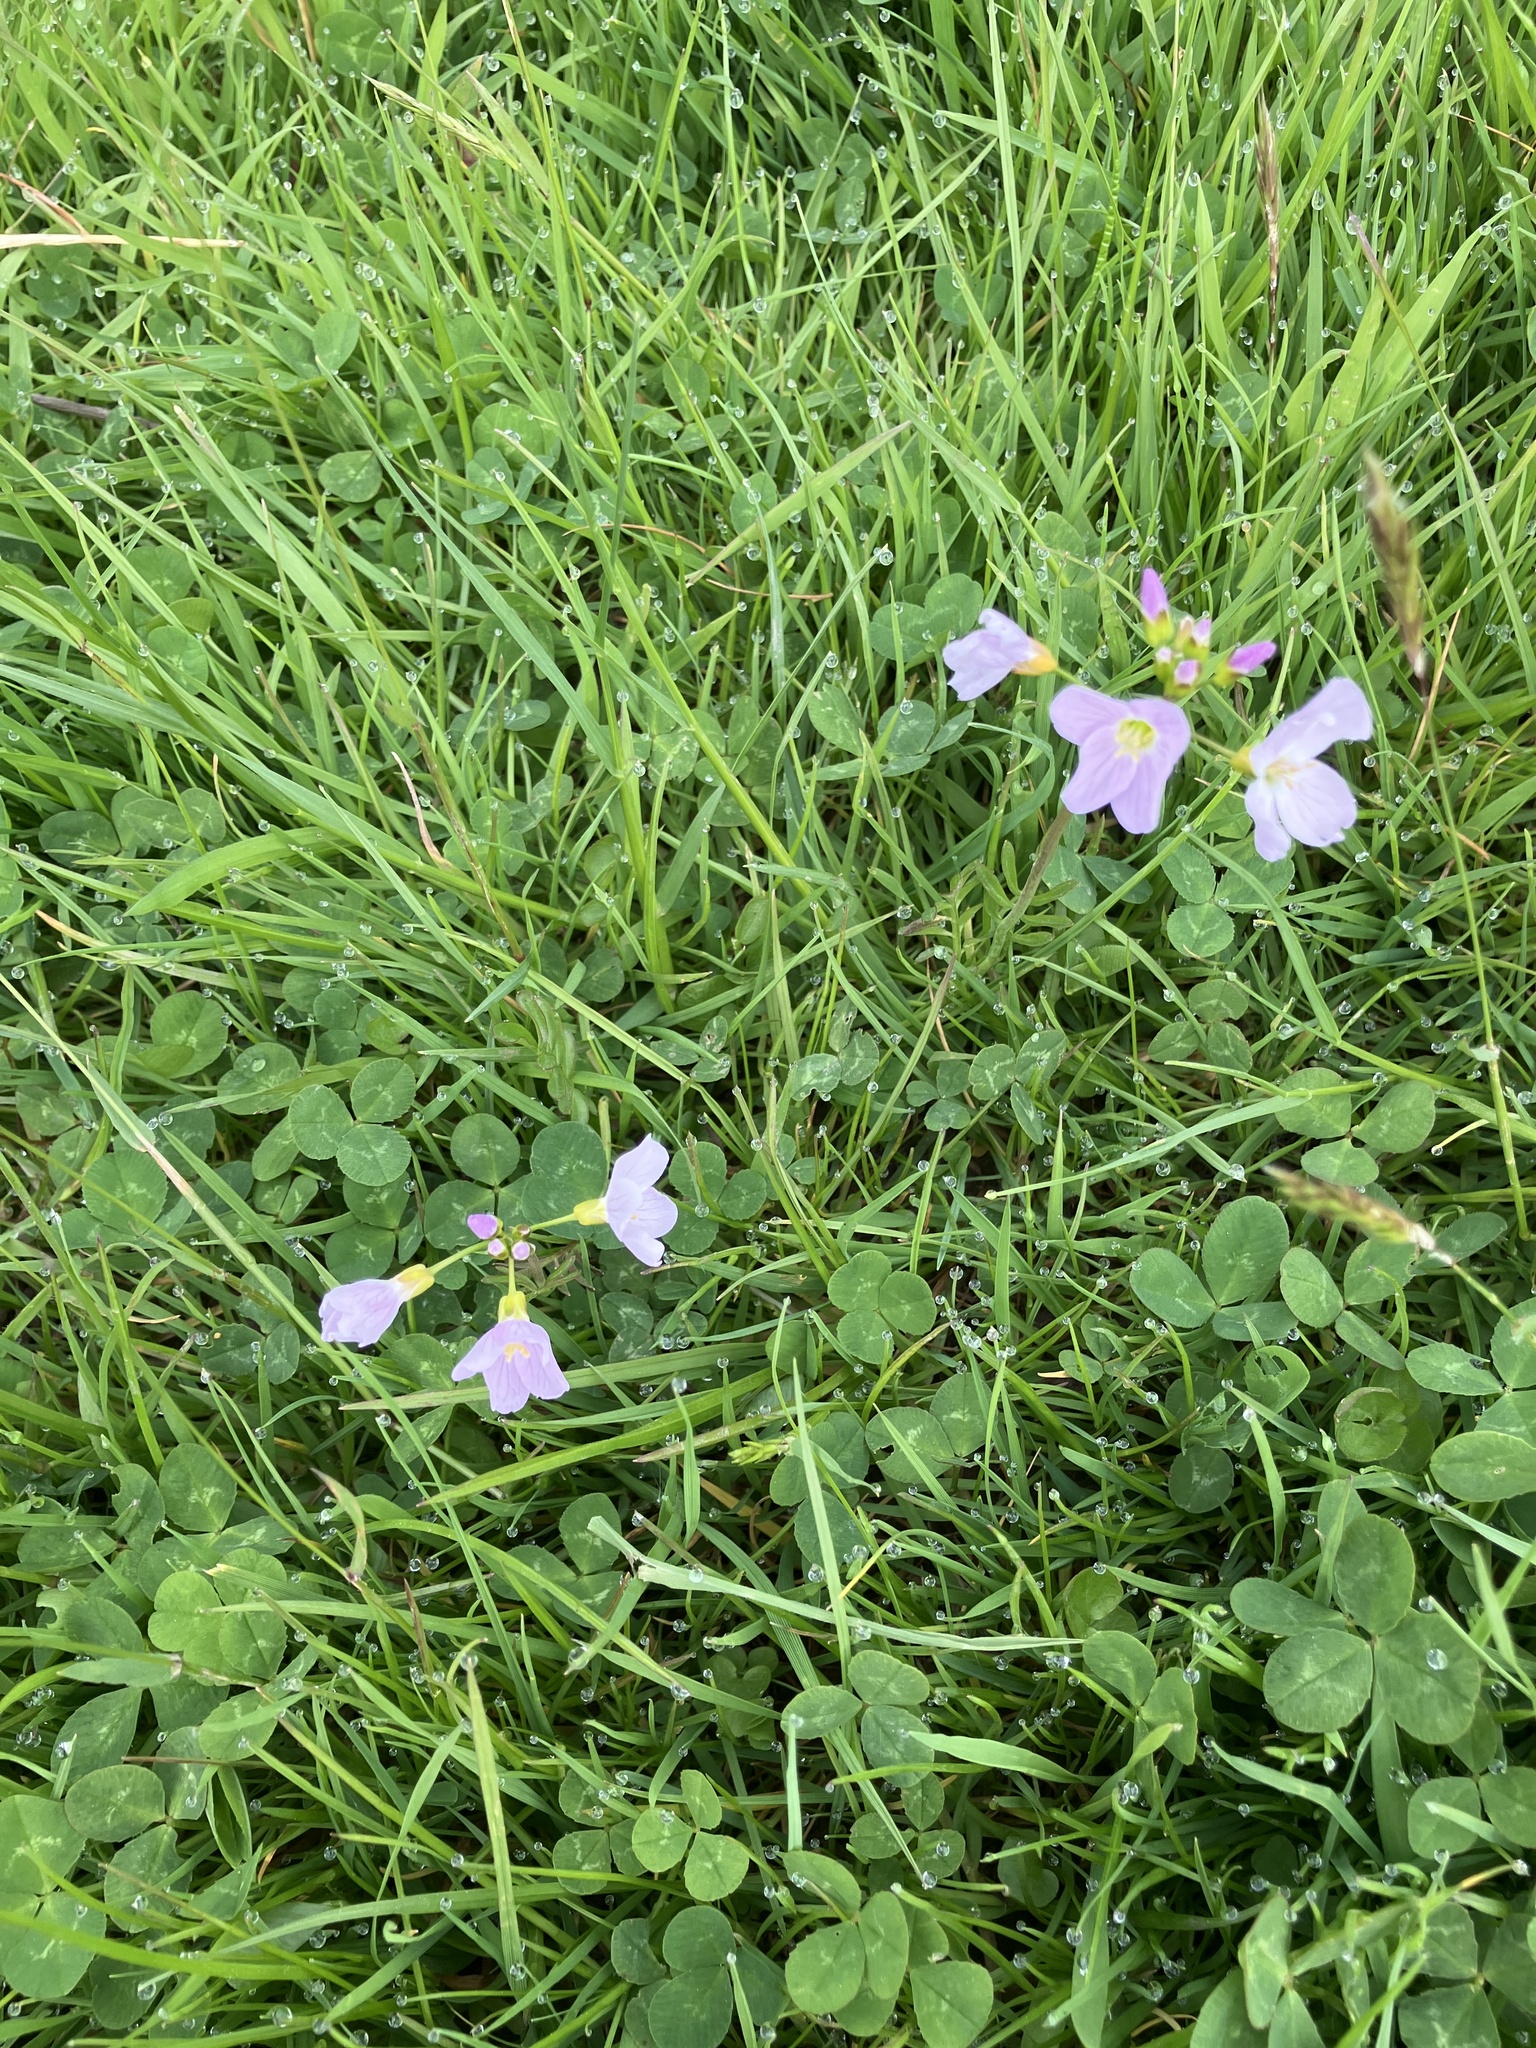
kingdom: Plantae
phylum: Tracheophyta
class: Magnoliopsida
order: Brassicales
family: Brassicaceae
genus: Cardamine
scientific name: Cardamine pratensis
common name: Cuckoo flower
